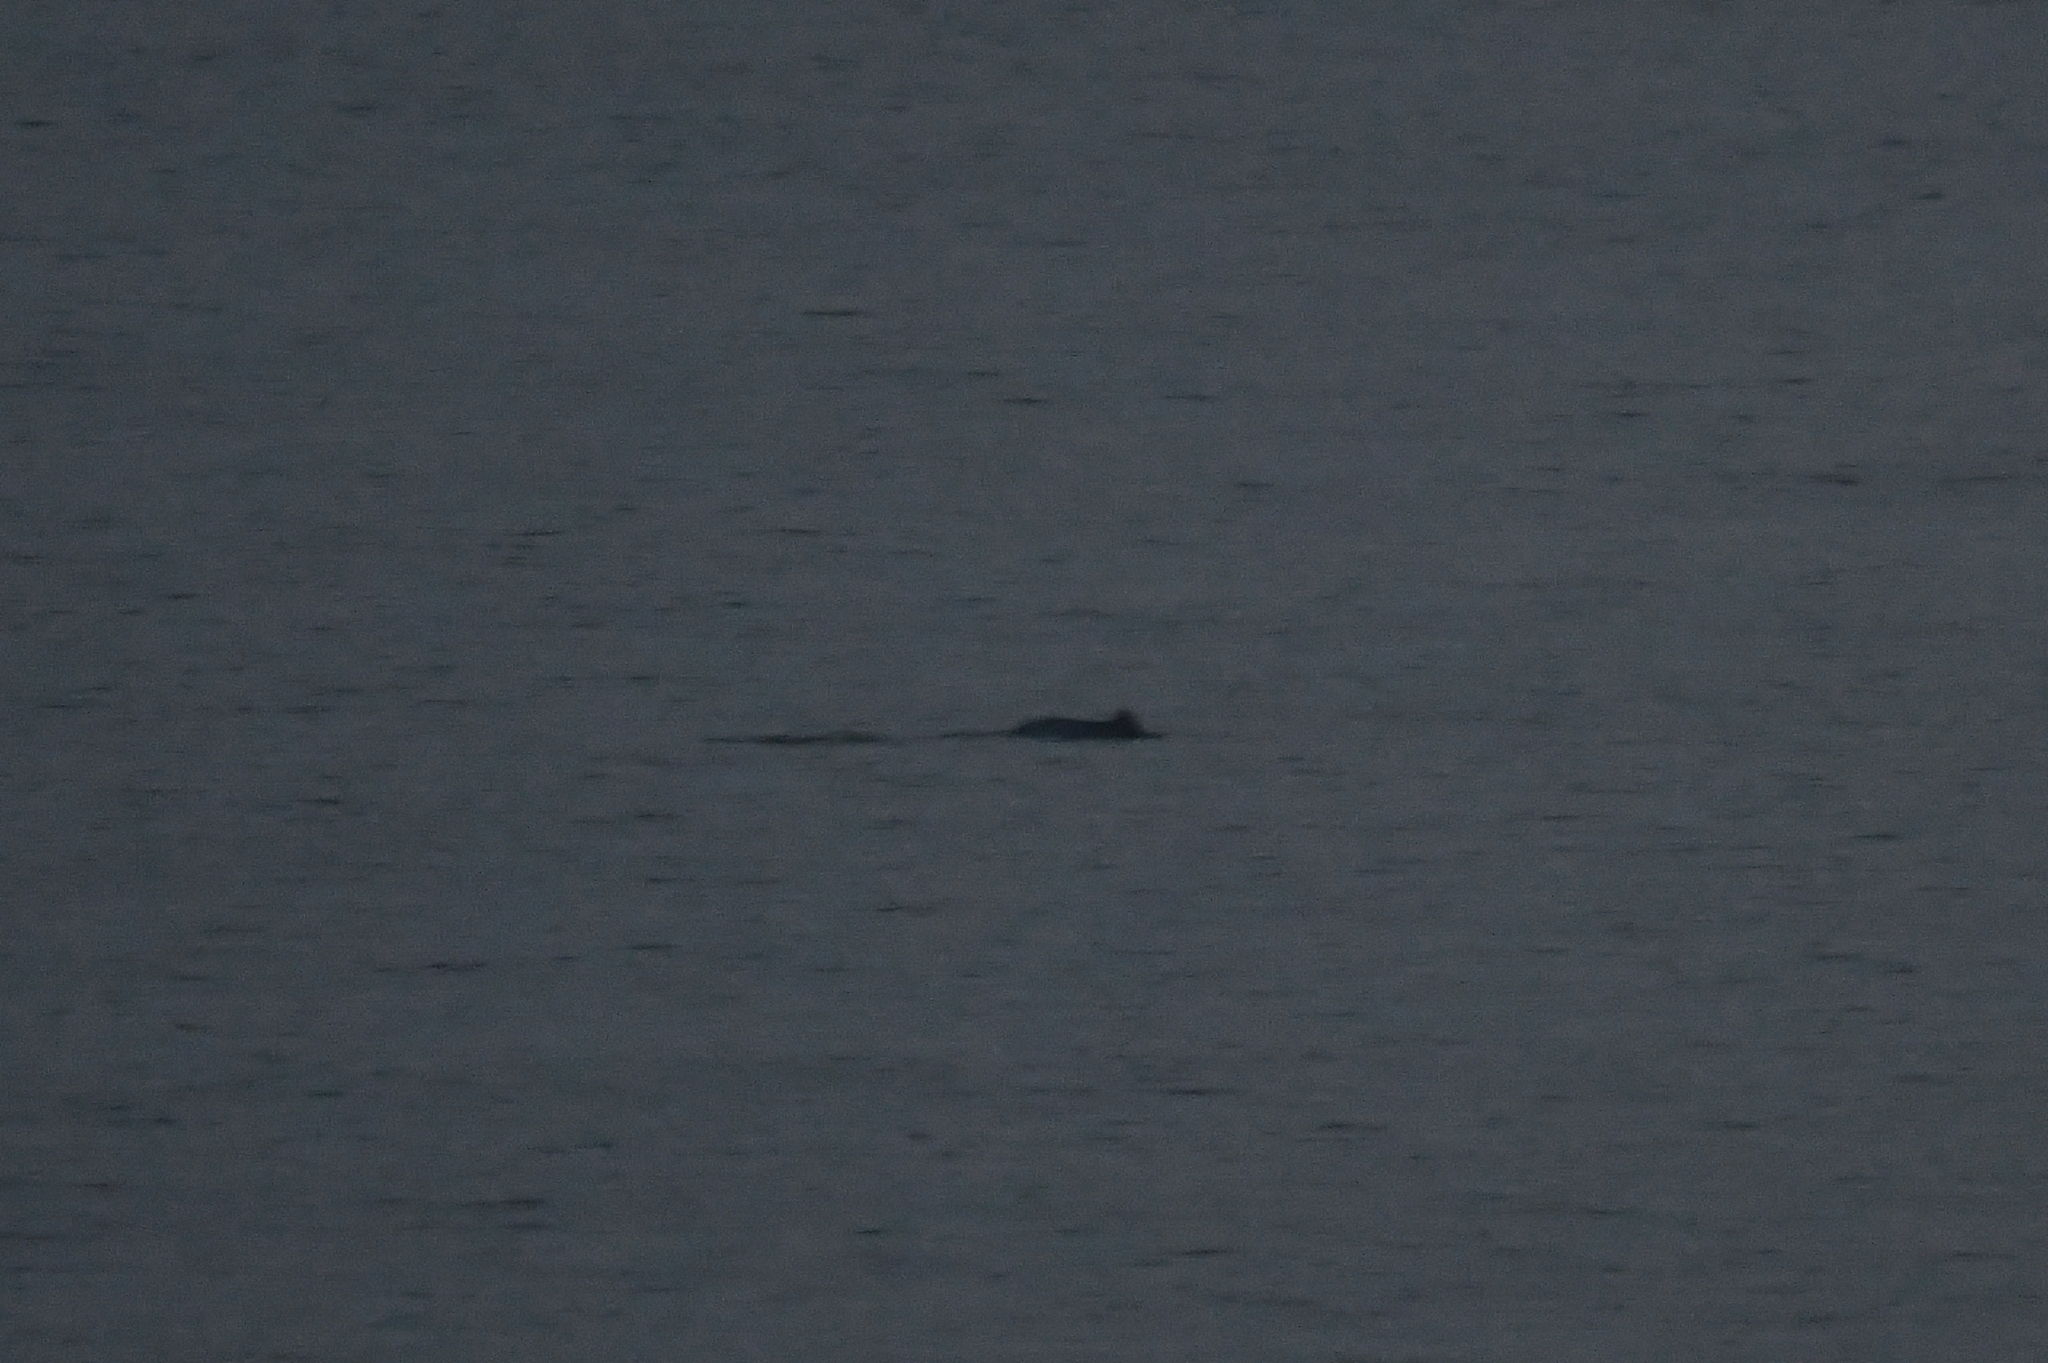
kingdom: Animalia
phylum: Chordata
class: Mammalia
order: Cetacea
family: Phocoenidae
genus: Phocoena
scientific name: Phocoena phocoena
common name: Harbor porpoise
